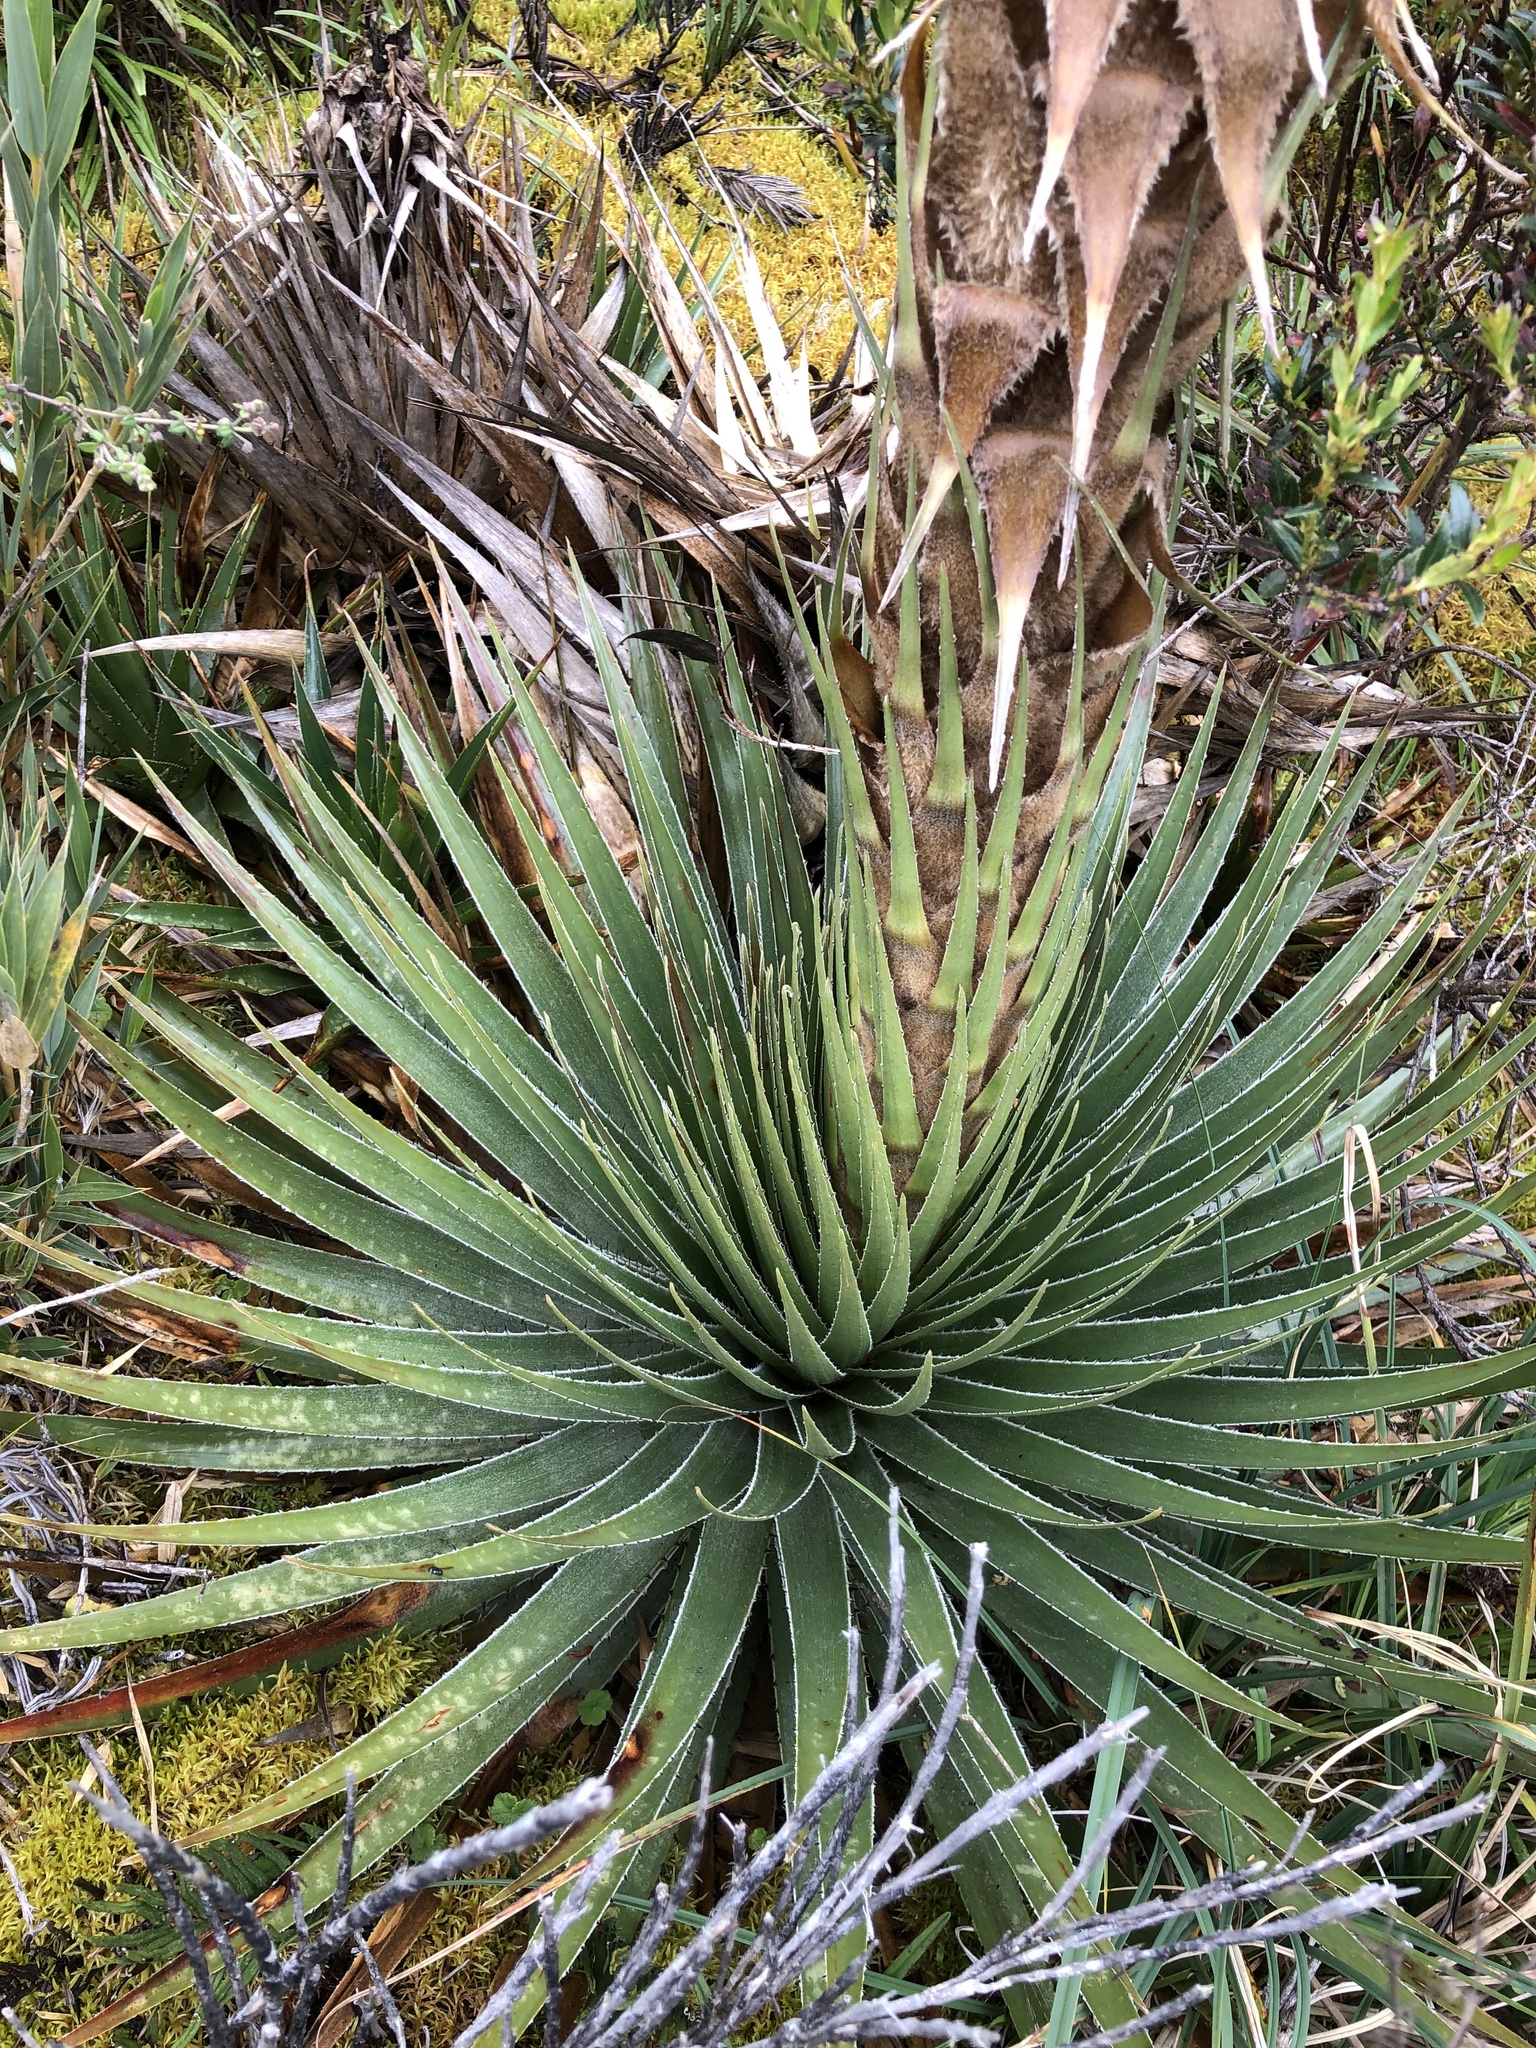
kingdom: Plantae
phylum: Tracheophyta
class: Liliopsida
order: Poales
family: Bromeliaceae
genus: Puya
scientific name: Puya trianae
